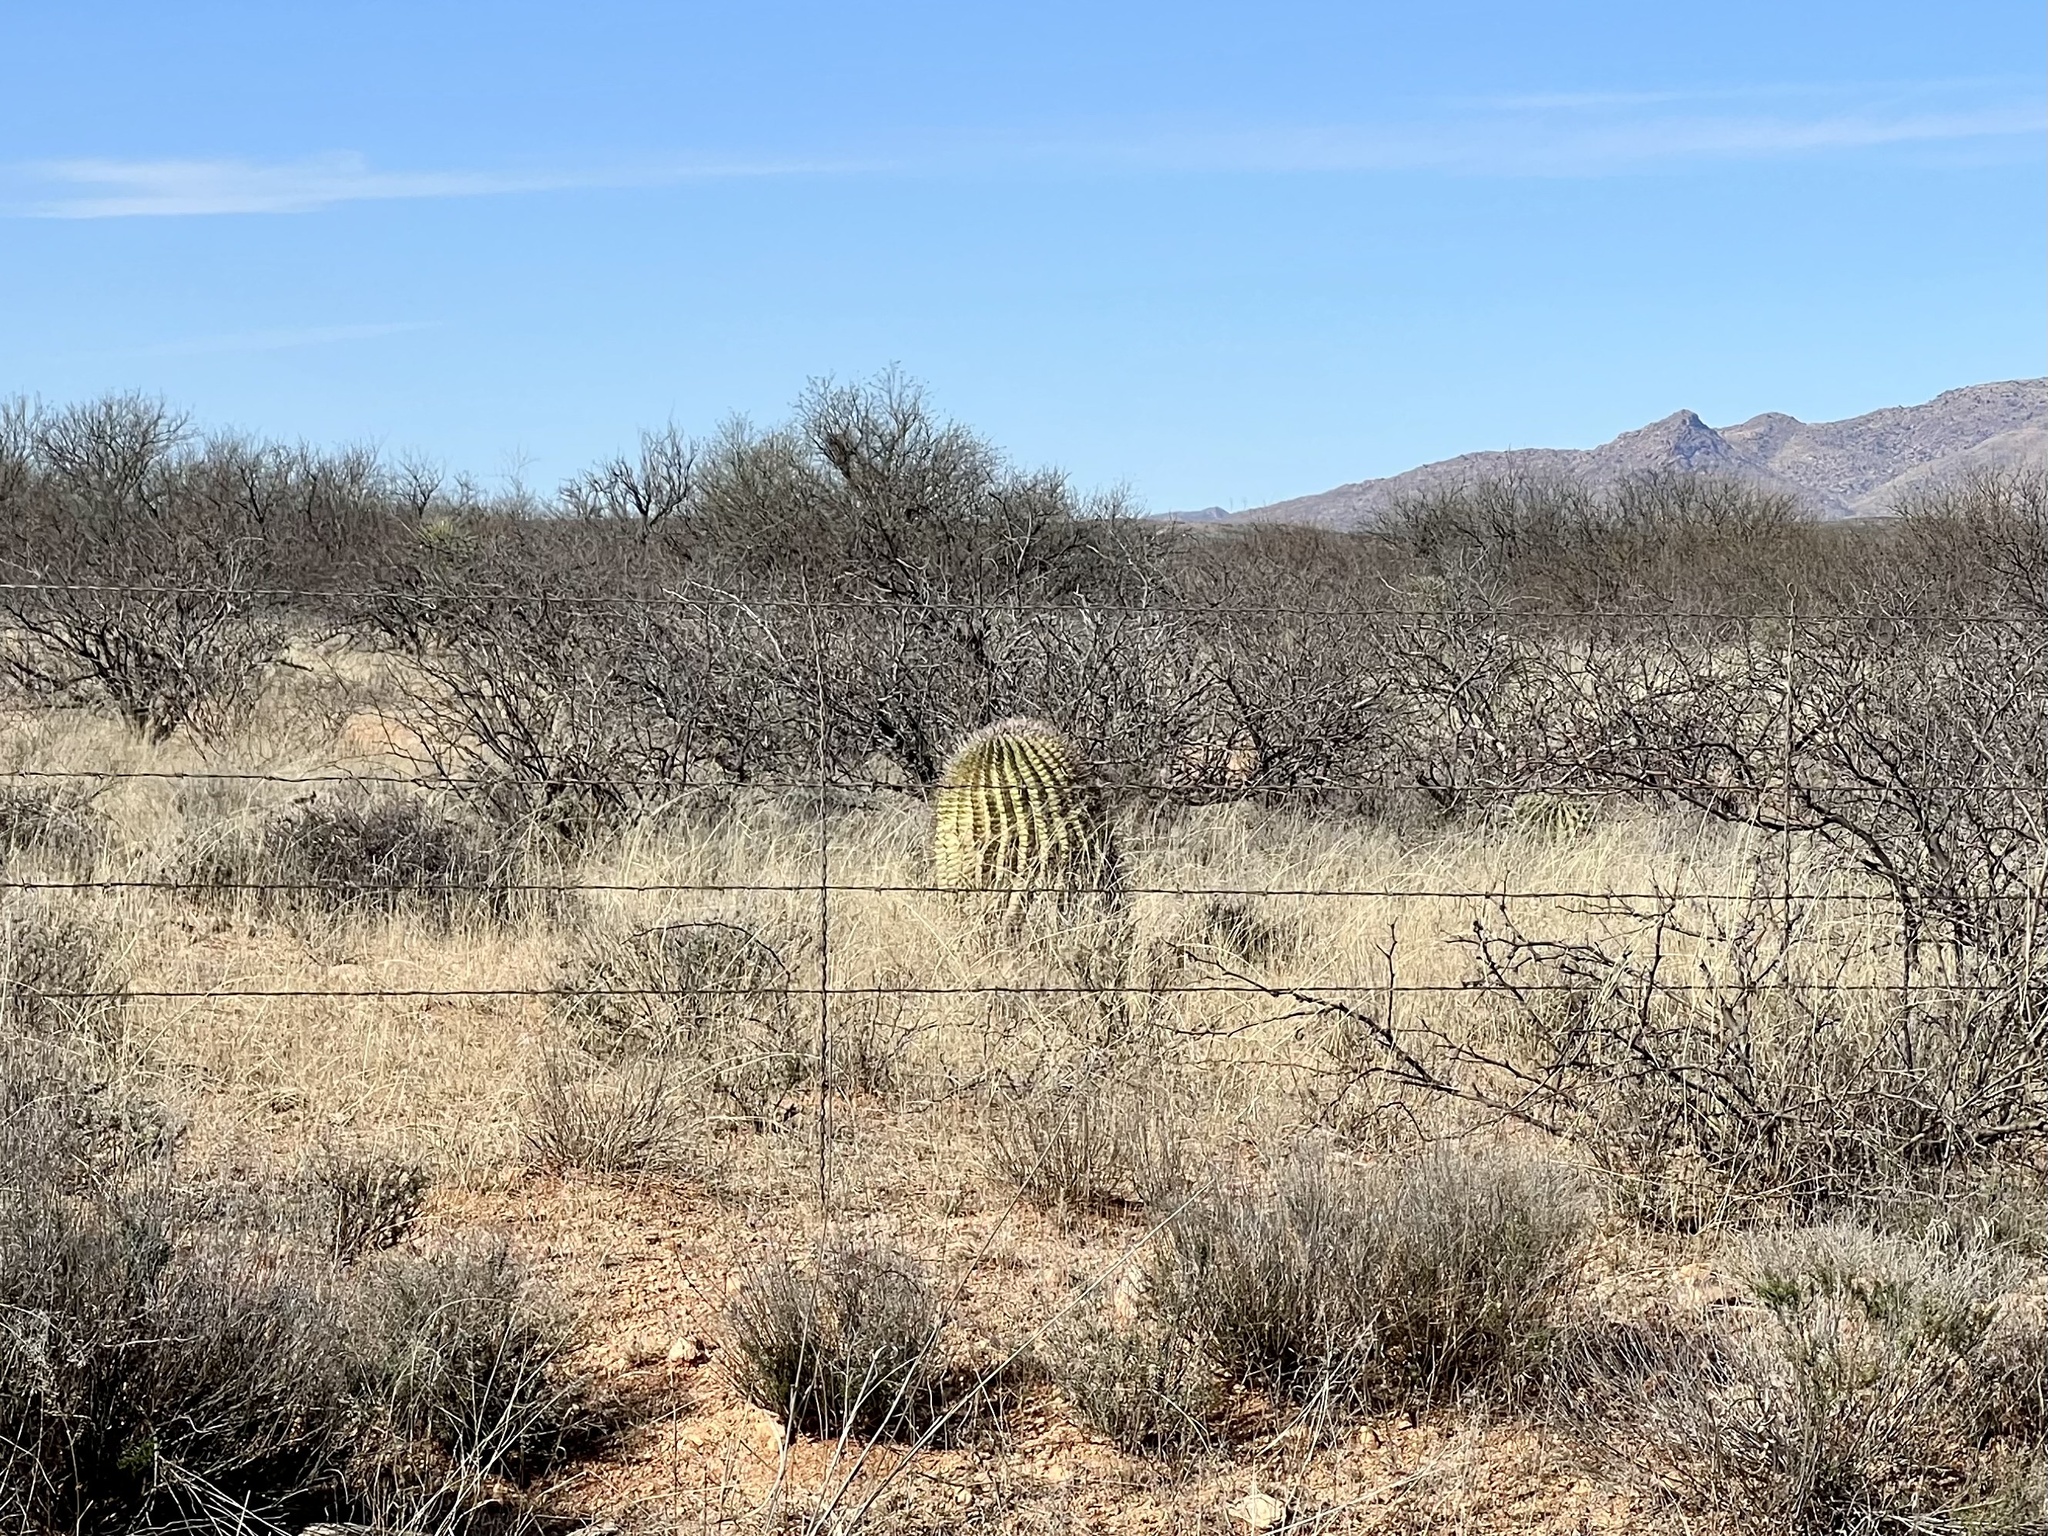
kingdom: Plantae
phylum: Tracheophyta
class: Magnoliopsida
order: Caryophyllales
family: Cactaceae
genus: Ferocactus
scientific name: Ferocactus wislizeni
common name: Candy barrel cactus
